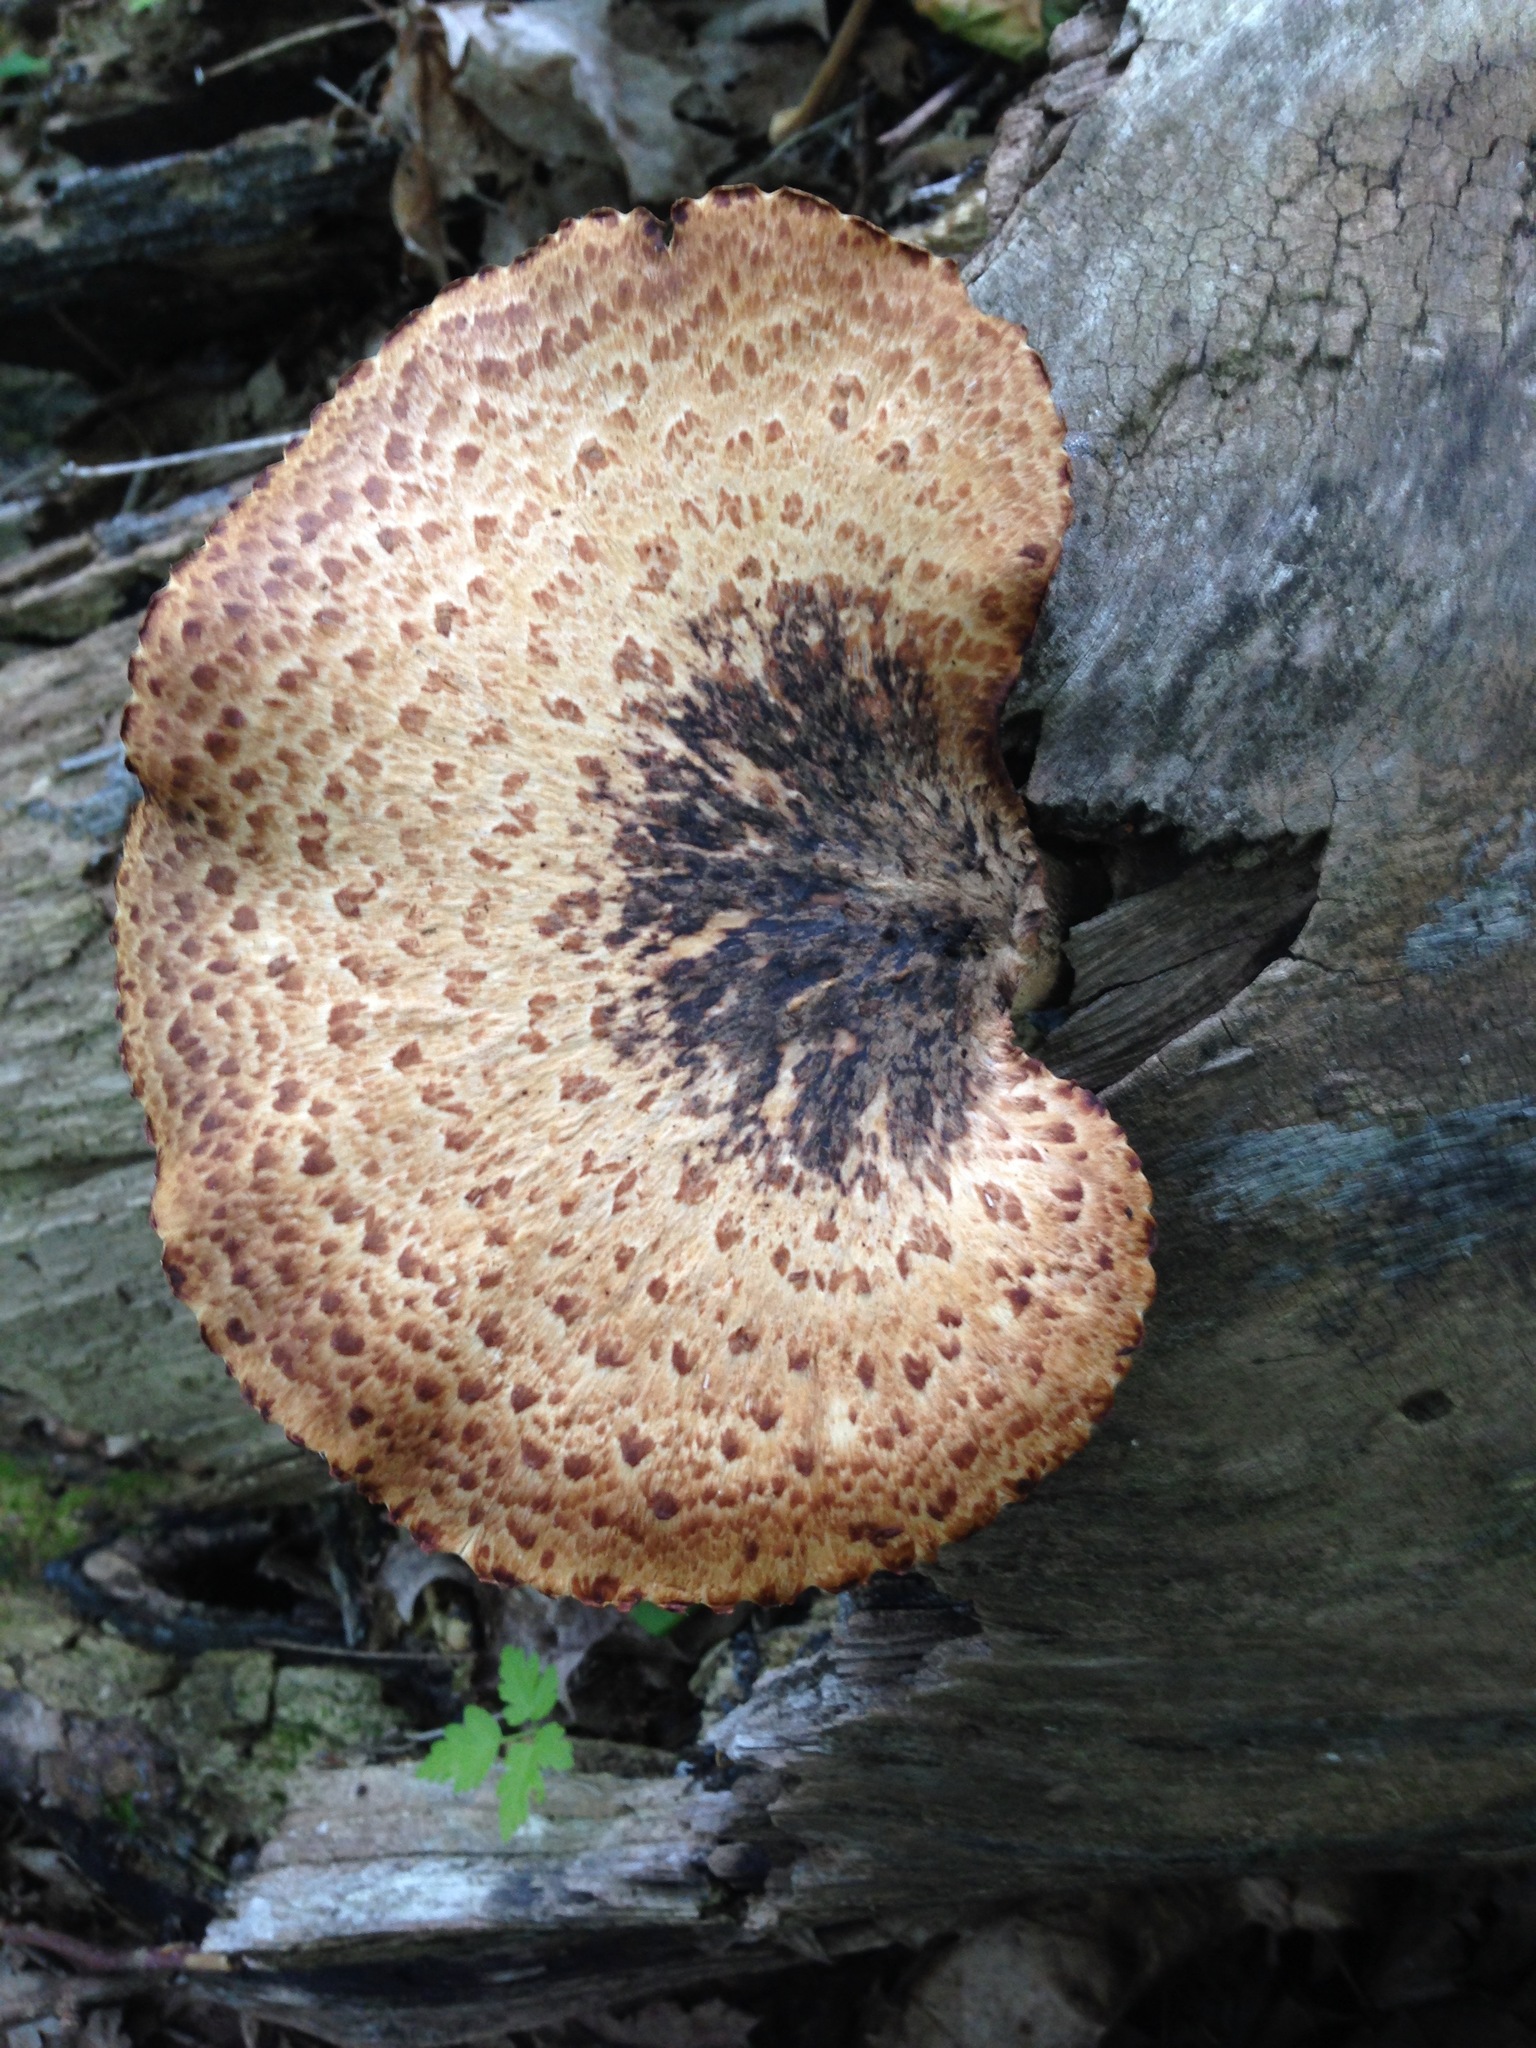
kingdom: Fungi
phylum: Basidiomycota
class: Agaricomycetes
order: Polyporales
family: Polyporaceae
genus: Cerioporus
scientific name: Cerioporus squamosus
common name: Dryad's saddle
